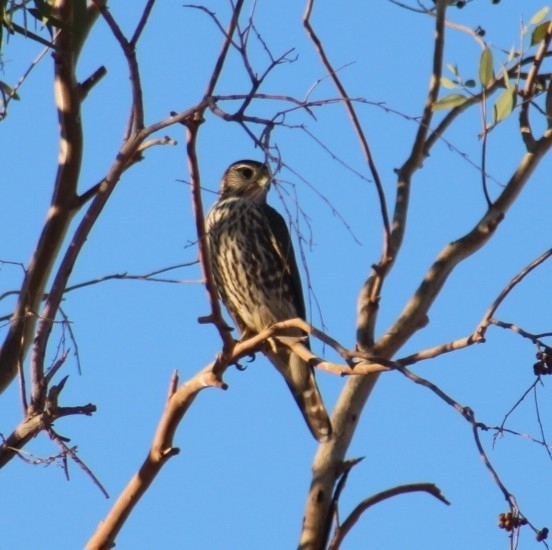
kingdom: Animalia
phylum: Chordata
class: Aves
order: Falconiformes
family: Falconidae
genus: Falco
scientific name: Falco columbarius
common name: Merlin
